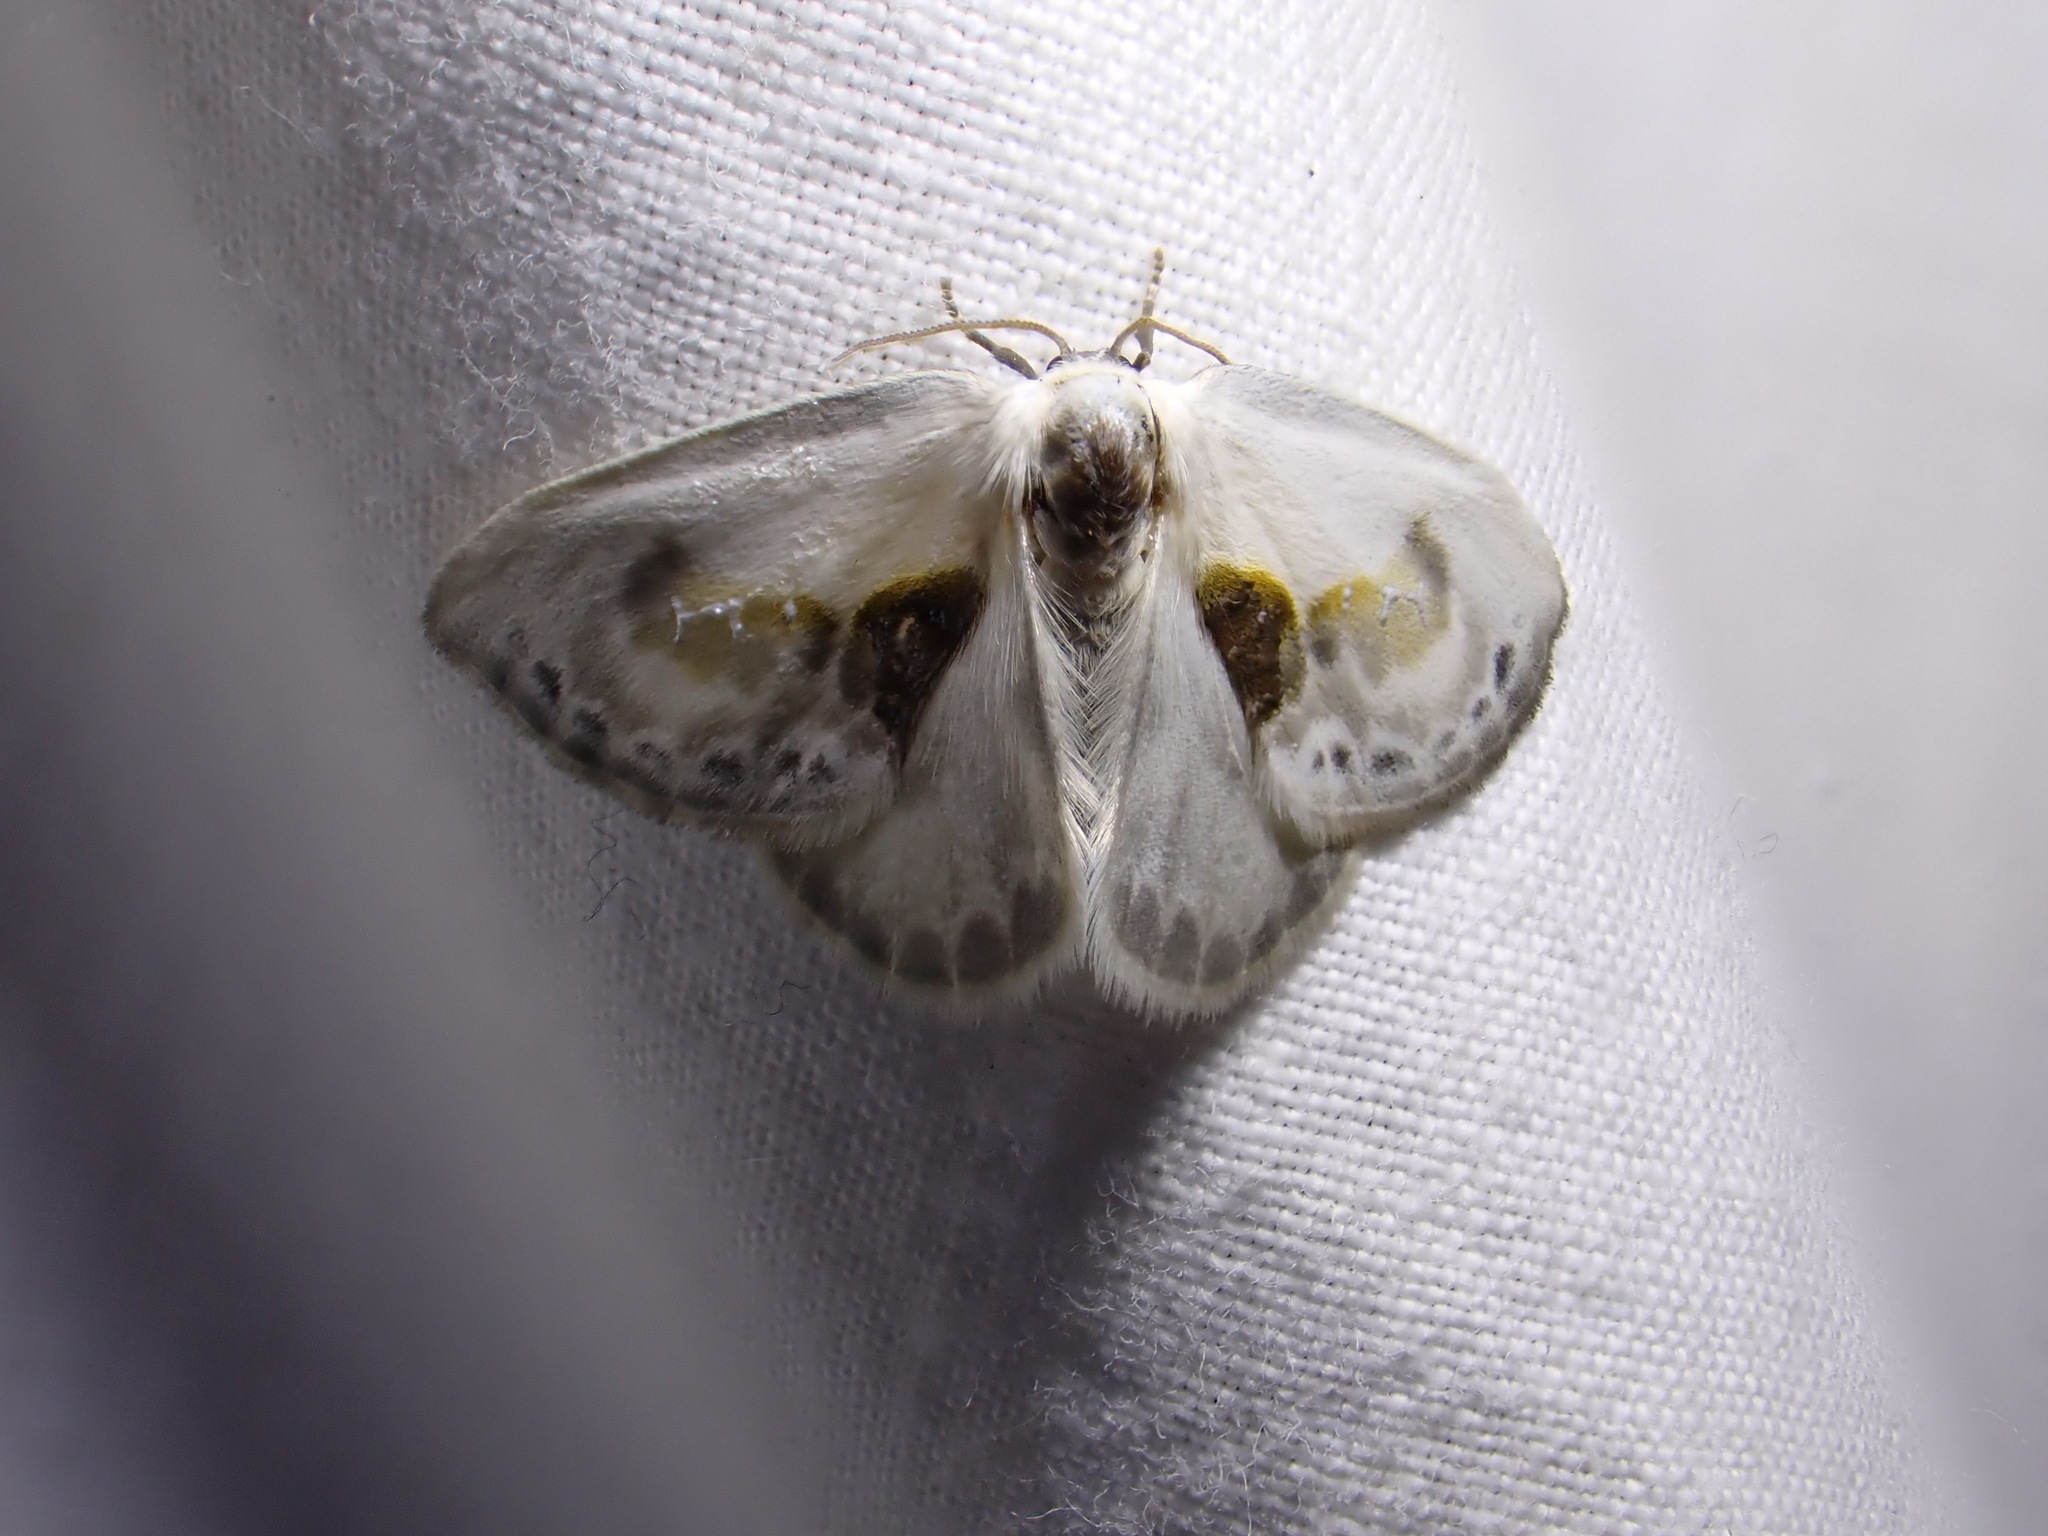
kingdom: Animalia
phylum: Arthropoda
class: Insecta
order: Lepidoptera
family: Drepanidae
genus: Cilix
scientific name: Cilix glaucata
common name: Chinese character
